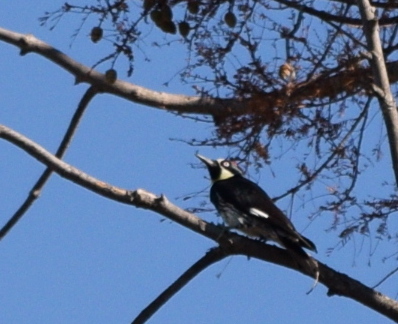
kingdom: Animalia
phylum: Chordata
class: Aves
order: Piciformes
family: Picidae
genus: Melanerpes
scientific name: Melanerpes formicivorus
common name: Acorn woodpecker
